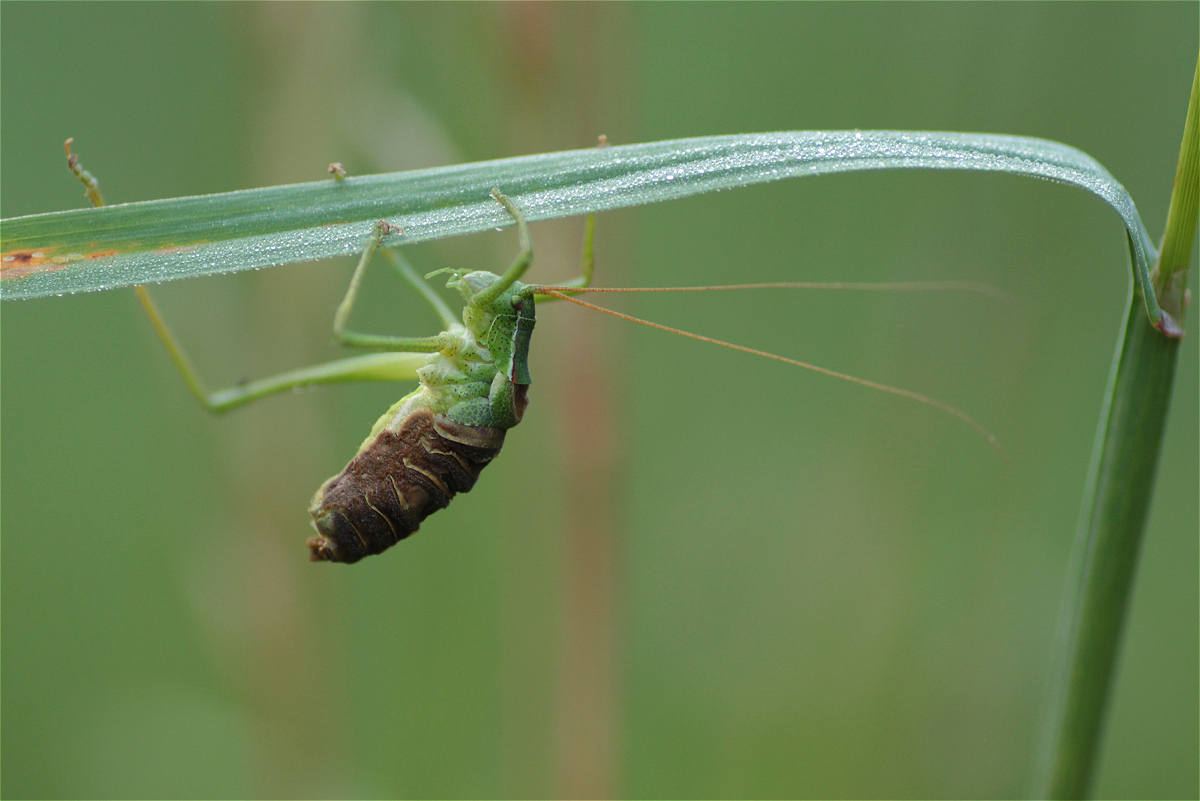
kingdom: Animalia
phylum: Arthropoda
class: Insecta
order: Orthoptera
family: Tettigoniidae
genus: Isophya
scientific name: Isophya kraussii
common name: Krauss's plump bush-cricket
